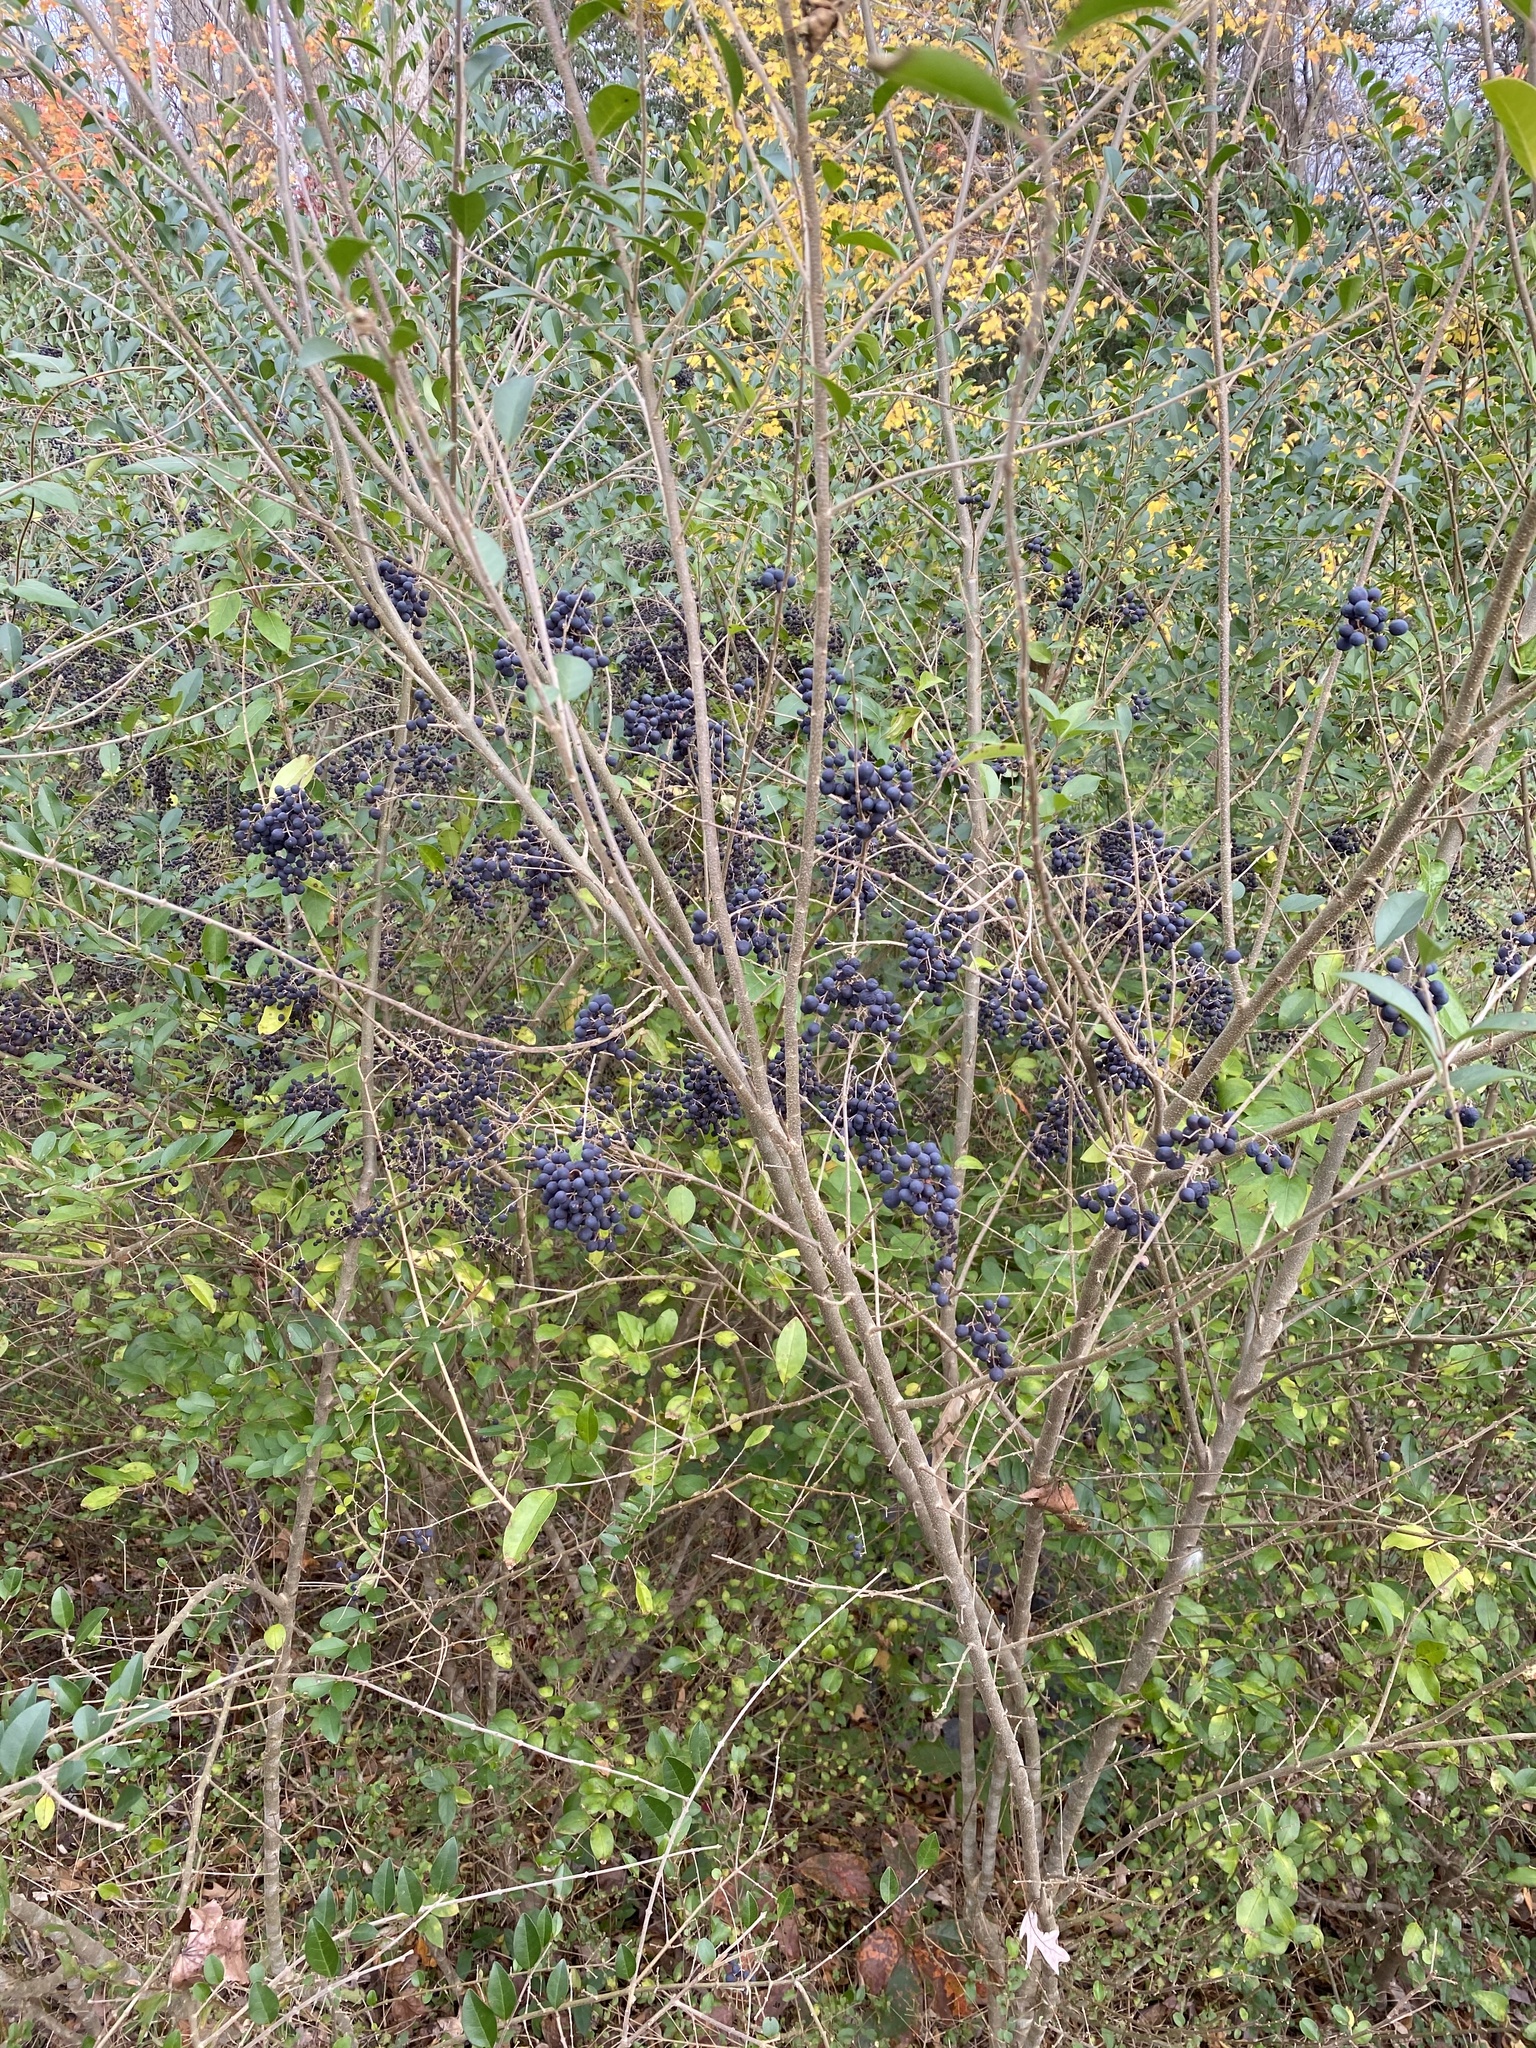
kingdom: Plantae
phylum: Tracheophyta
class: Magnoliopsida
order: Lamiales
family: Oleaceae
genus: Ligustrum
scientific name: Ligustrum sinense
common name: Chinese privet
